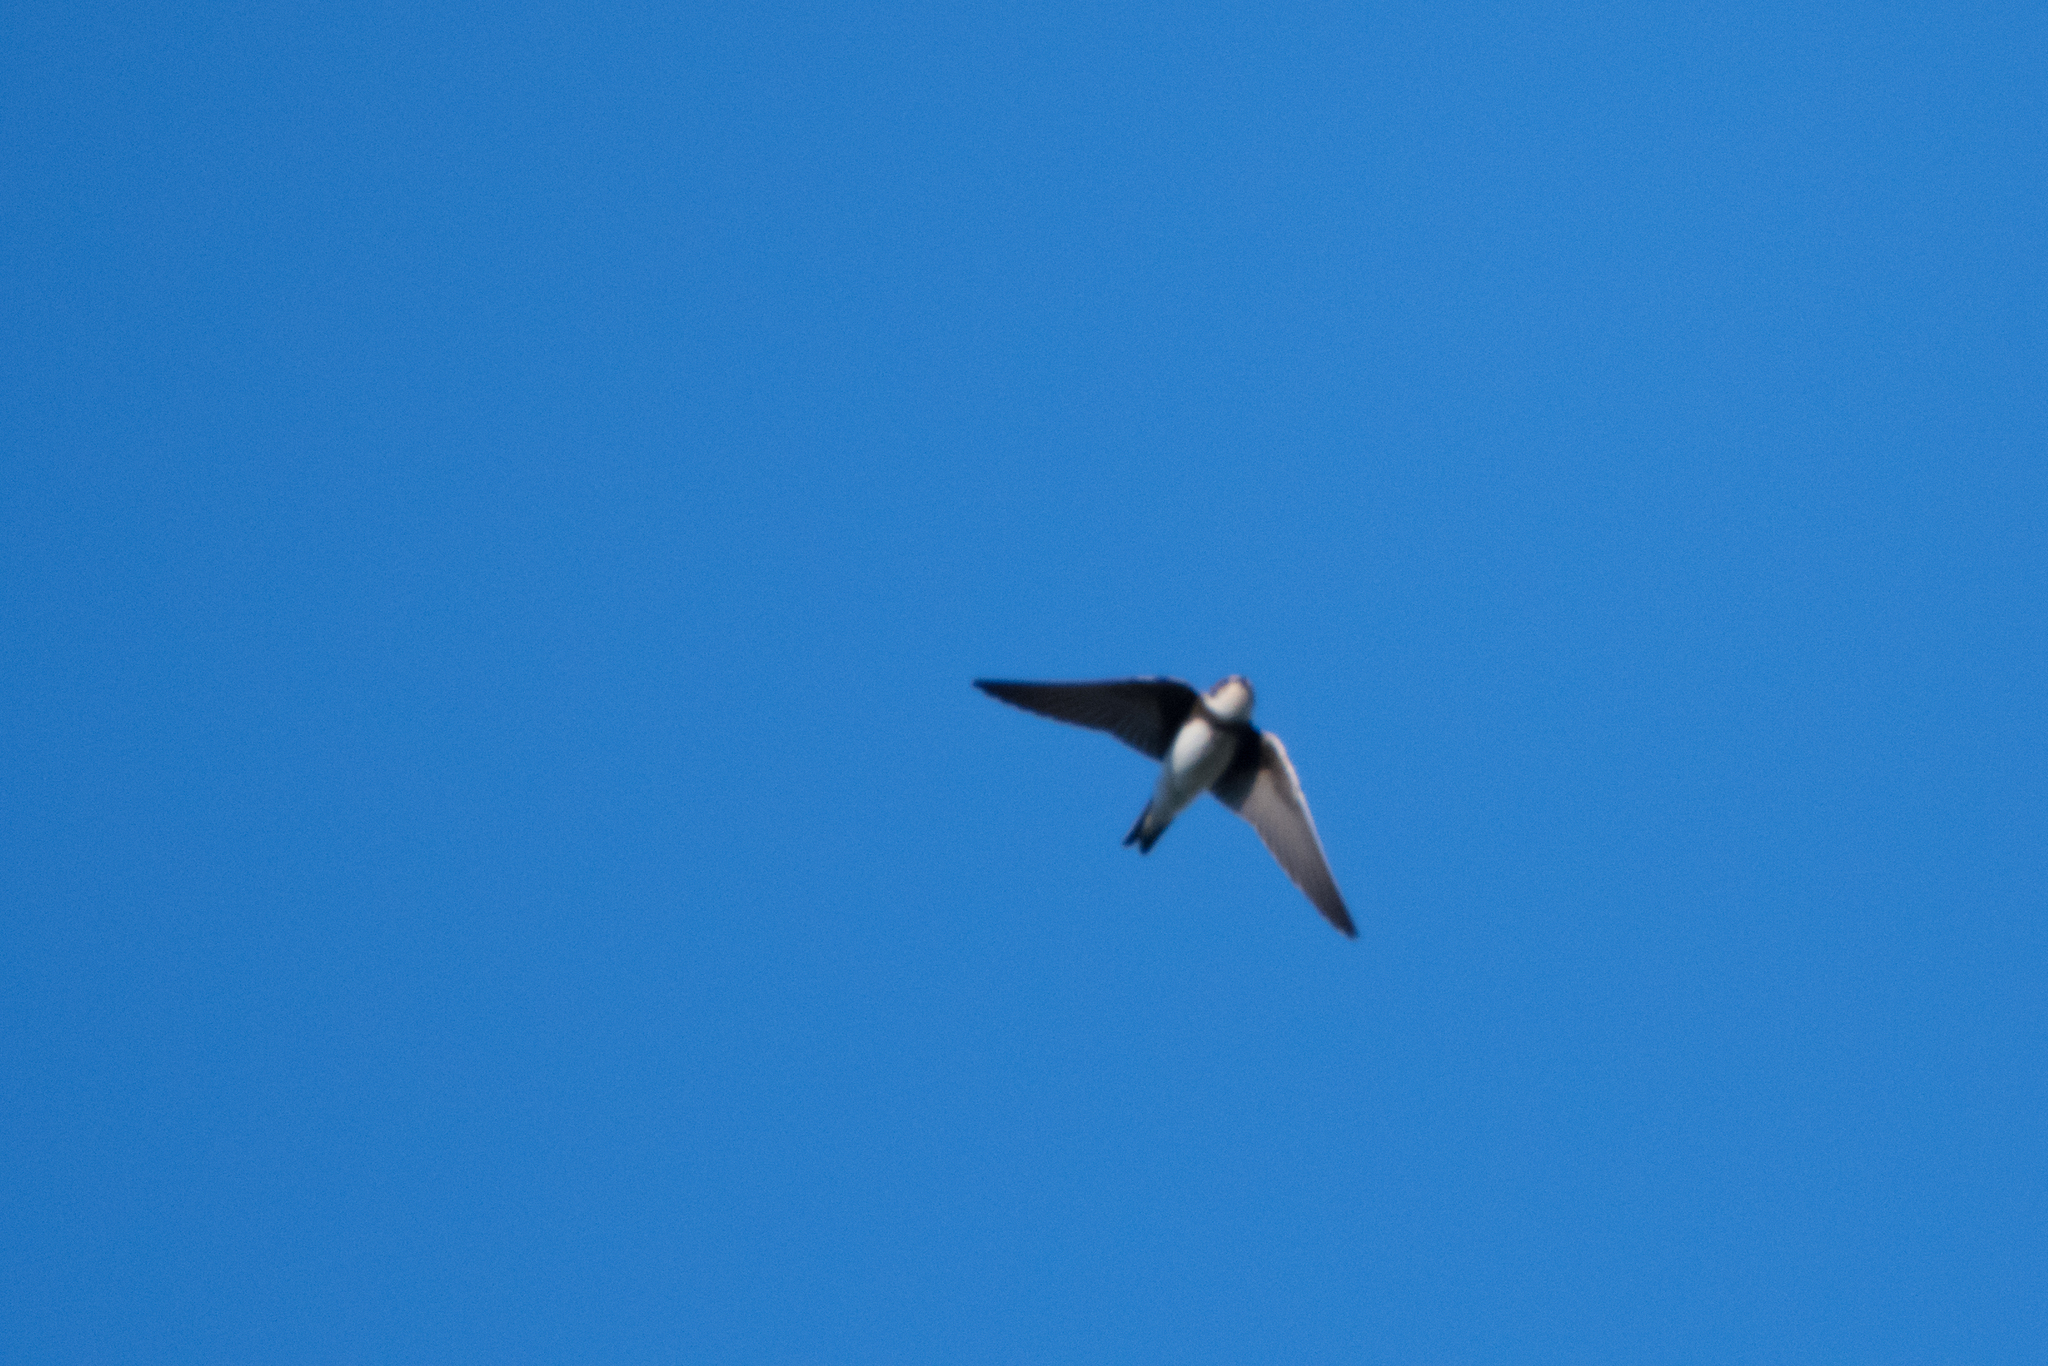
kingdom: Animalia
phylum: Chordata
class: Aves
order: Passeriformes
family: Hirundinidae
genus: Riparia
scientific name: Riparia riparia
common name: Sand martin
